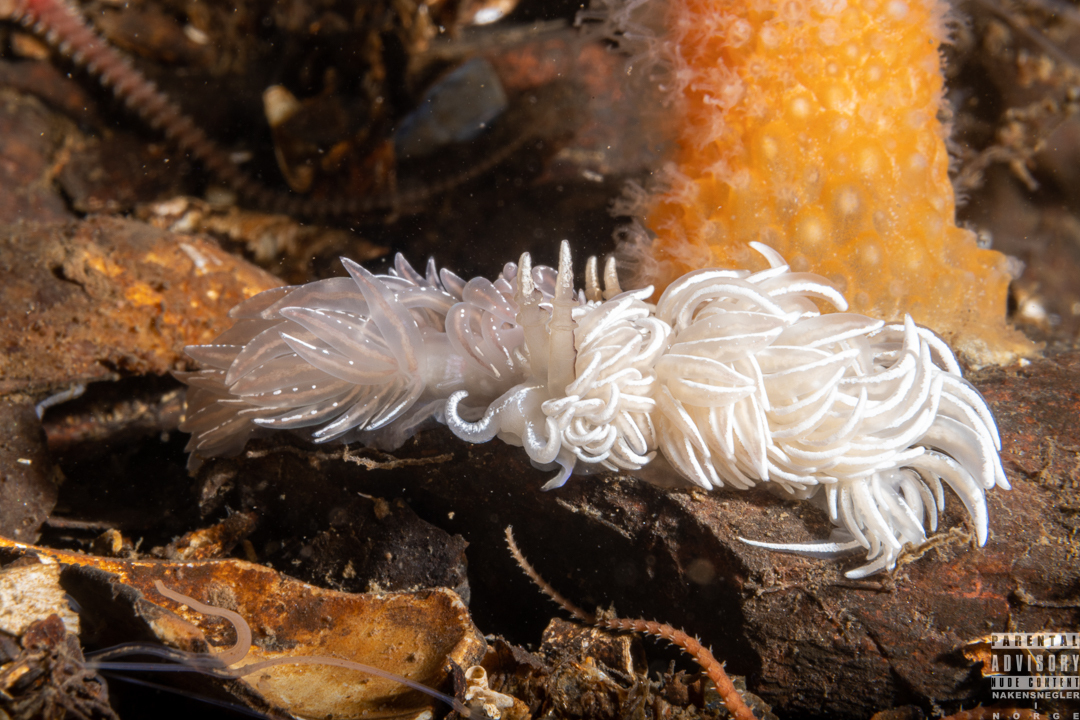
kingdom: Animalia
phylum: Mollusca
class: Gastropoda
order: Nudibranchia
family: Facelinidae
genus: Favorinus
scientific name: Favorinus blianus
